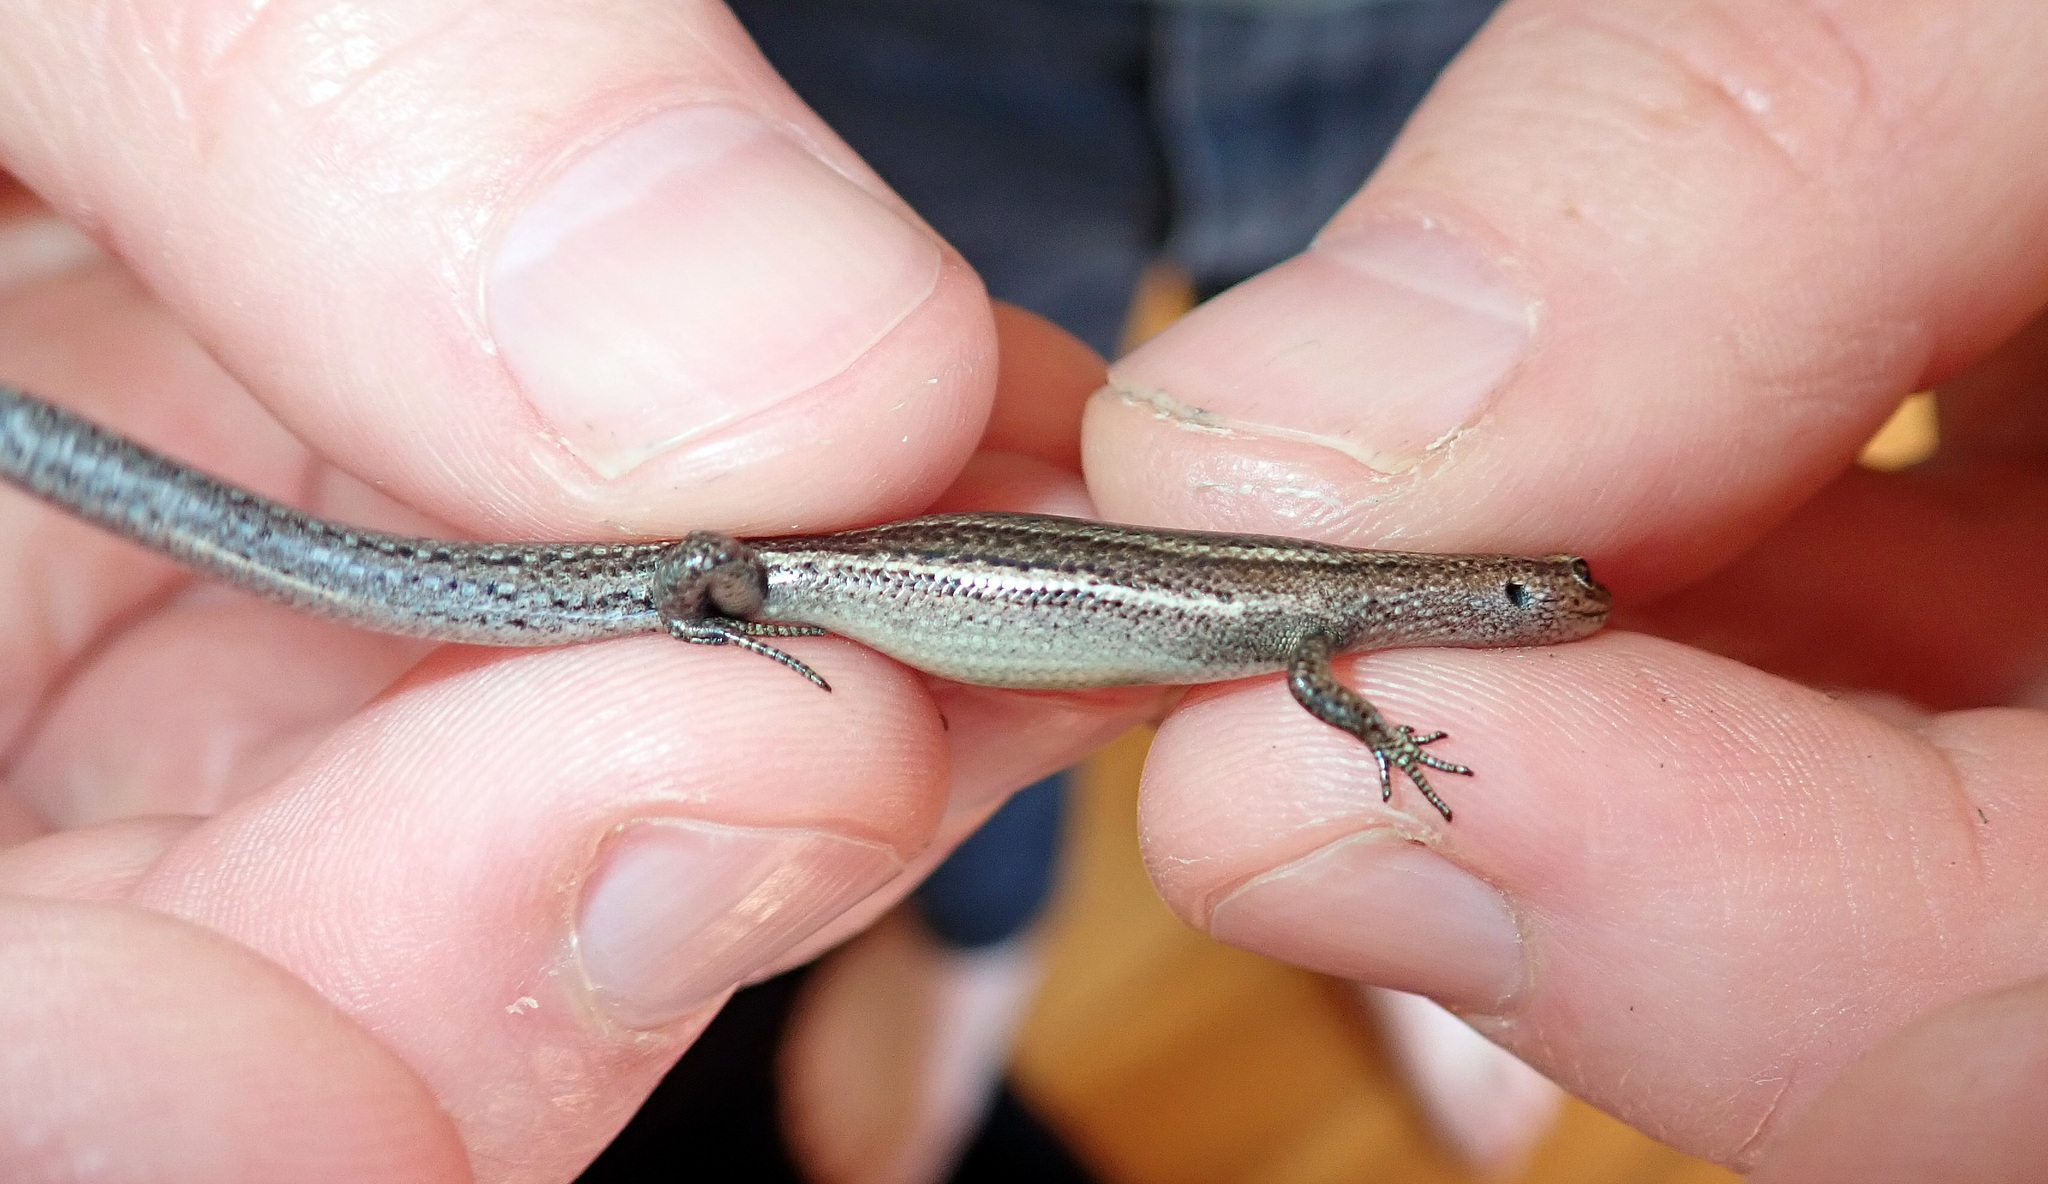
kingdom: Animalia
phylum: Chordata
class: Squamata
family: Scincidae
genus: Lampropholis
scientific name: Lampropholis delicata
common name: Plague skink
